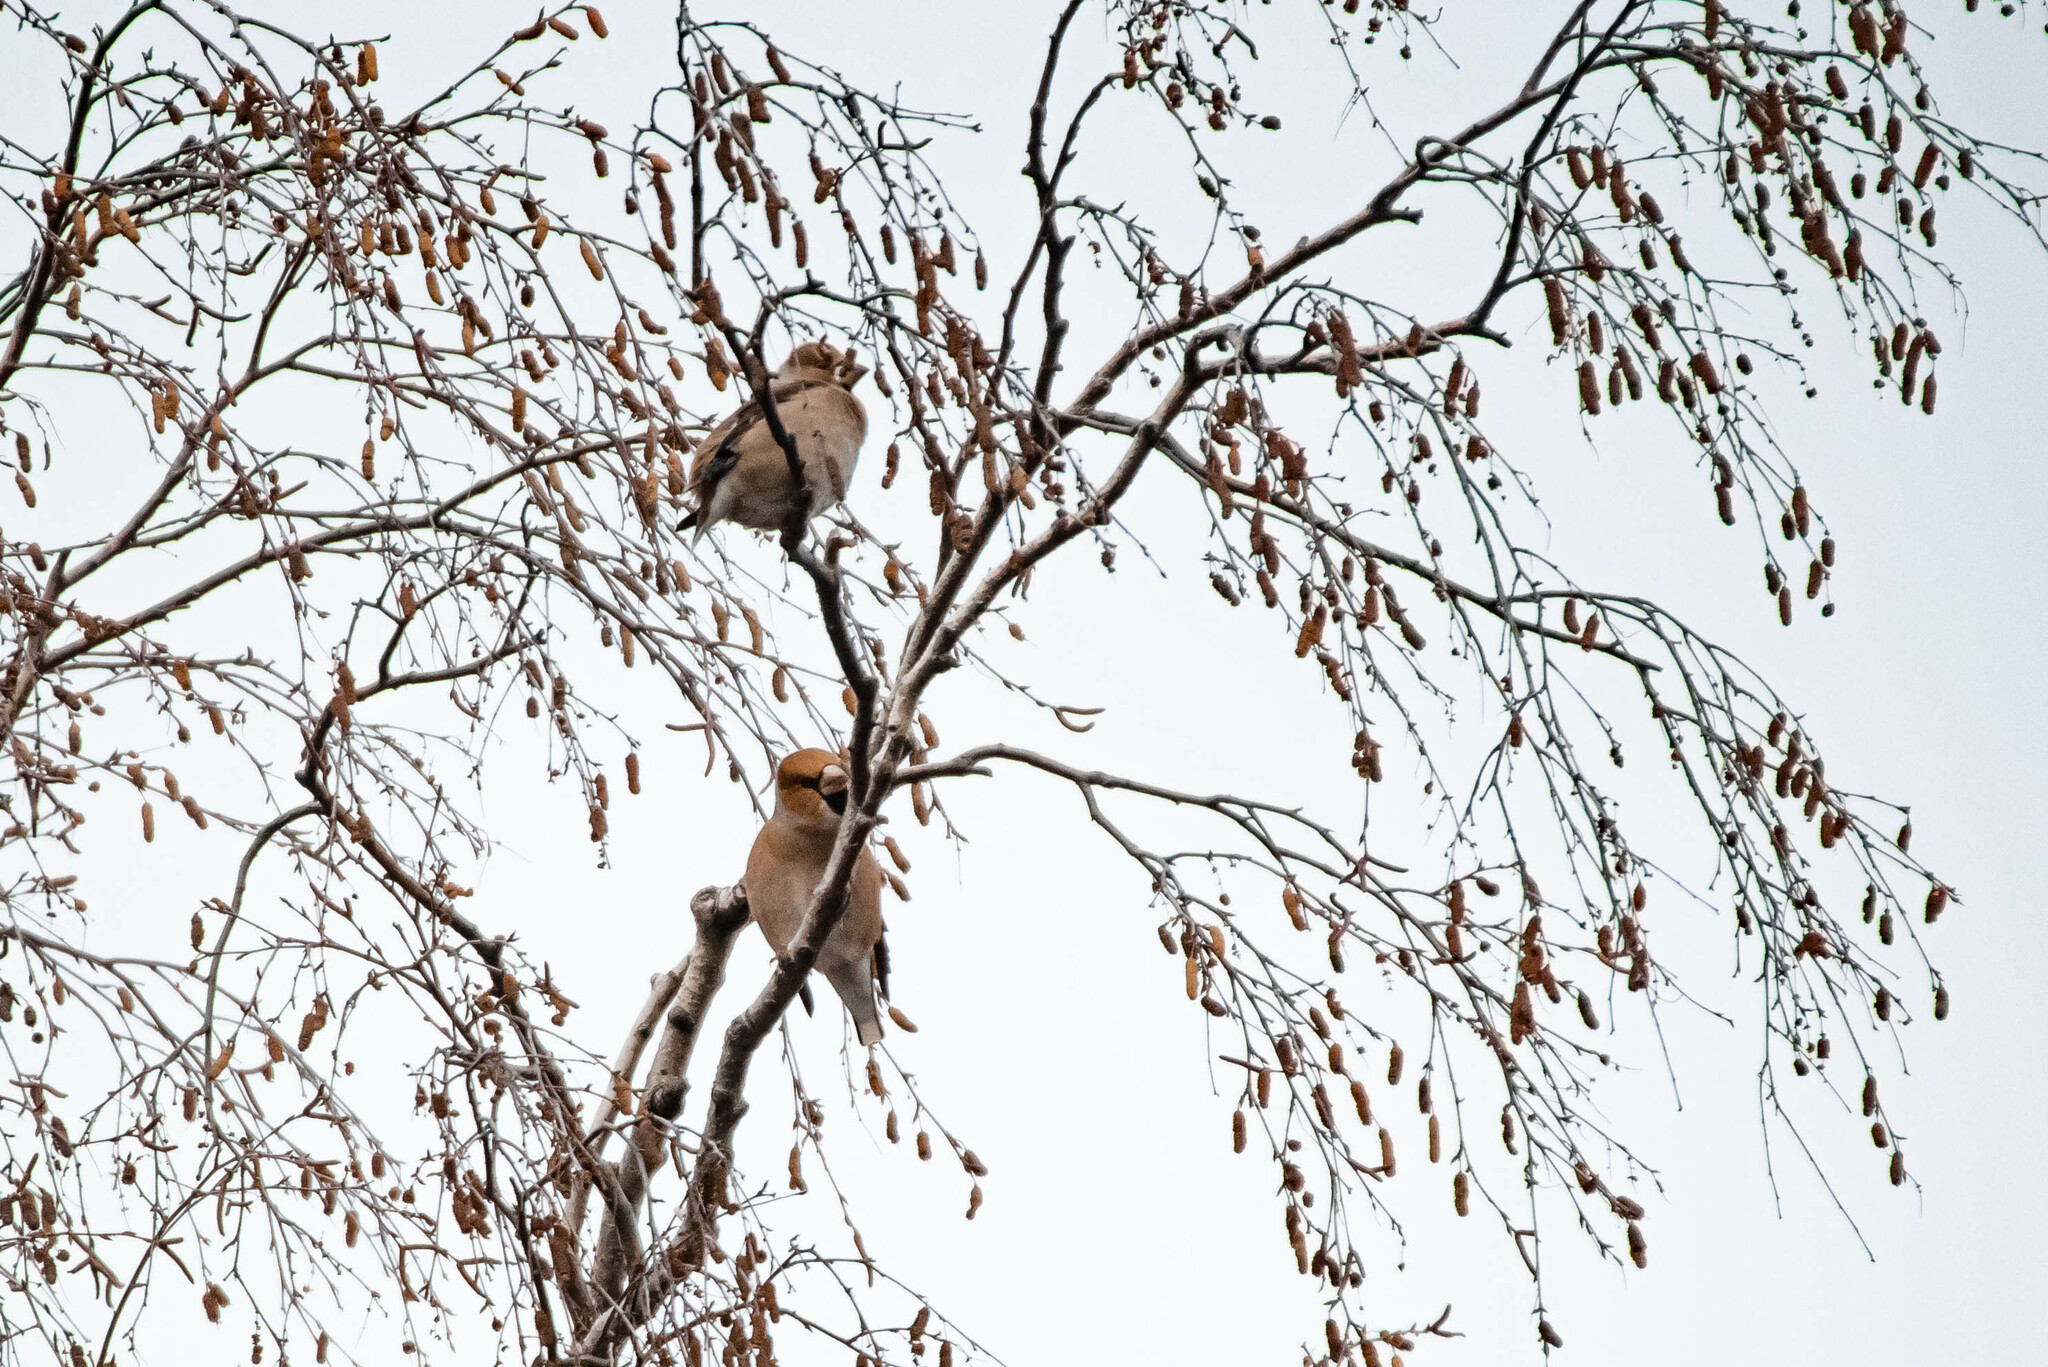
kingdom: Animalia
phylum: Chordata
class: Aves
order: Passeriformes
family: Fringillidae
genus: Coccothraustes
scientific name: Coccothraustes coccothraustes
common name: Hawfinch
